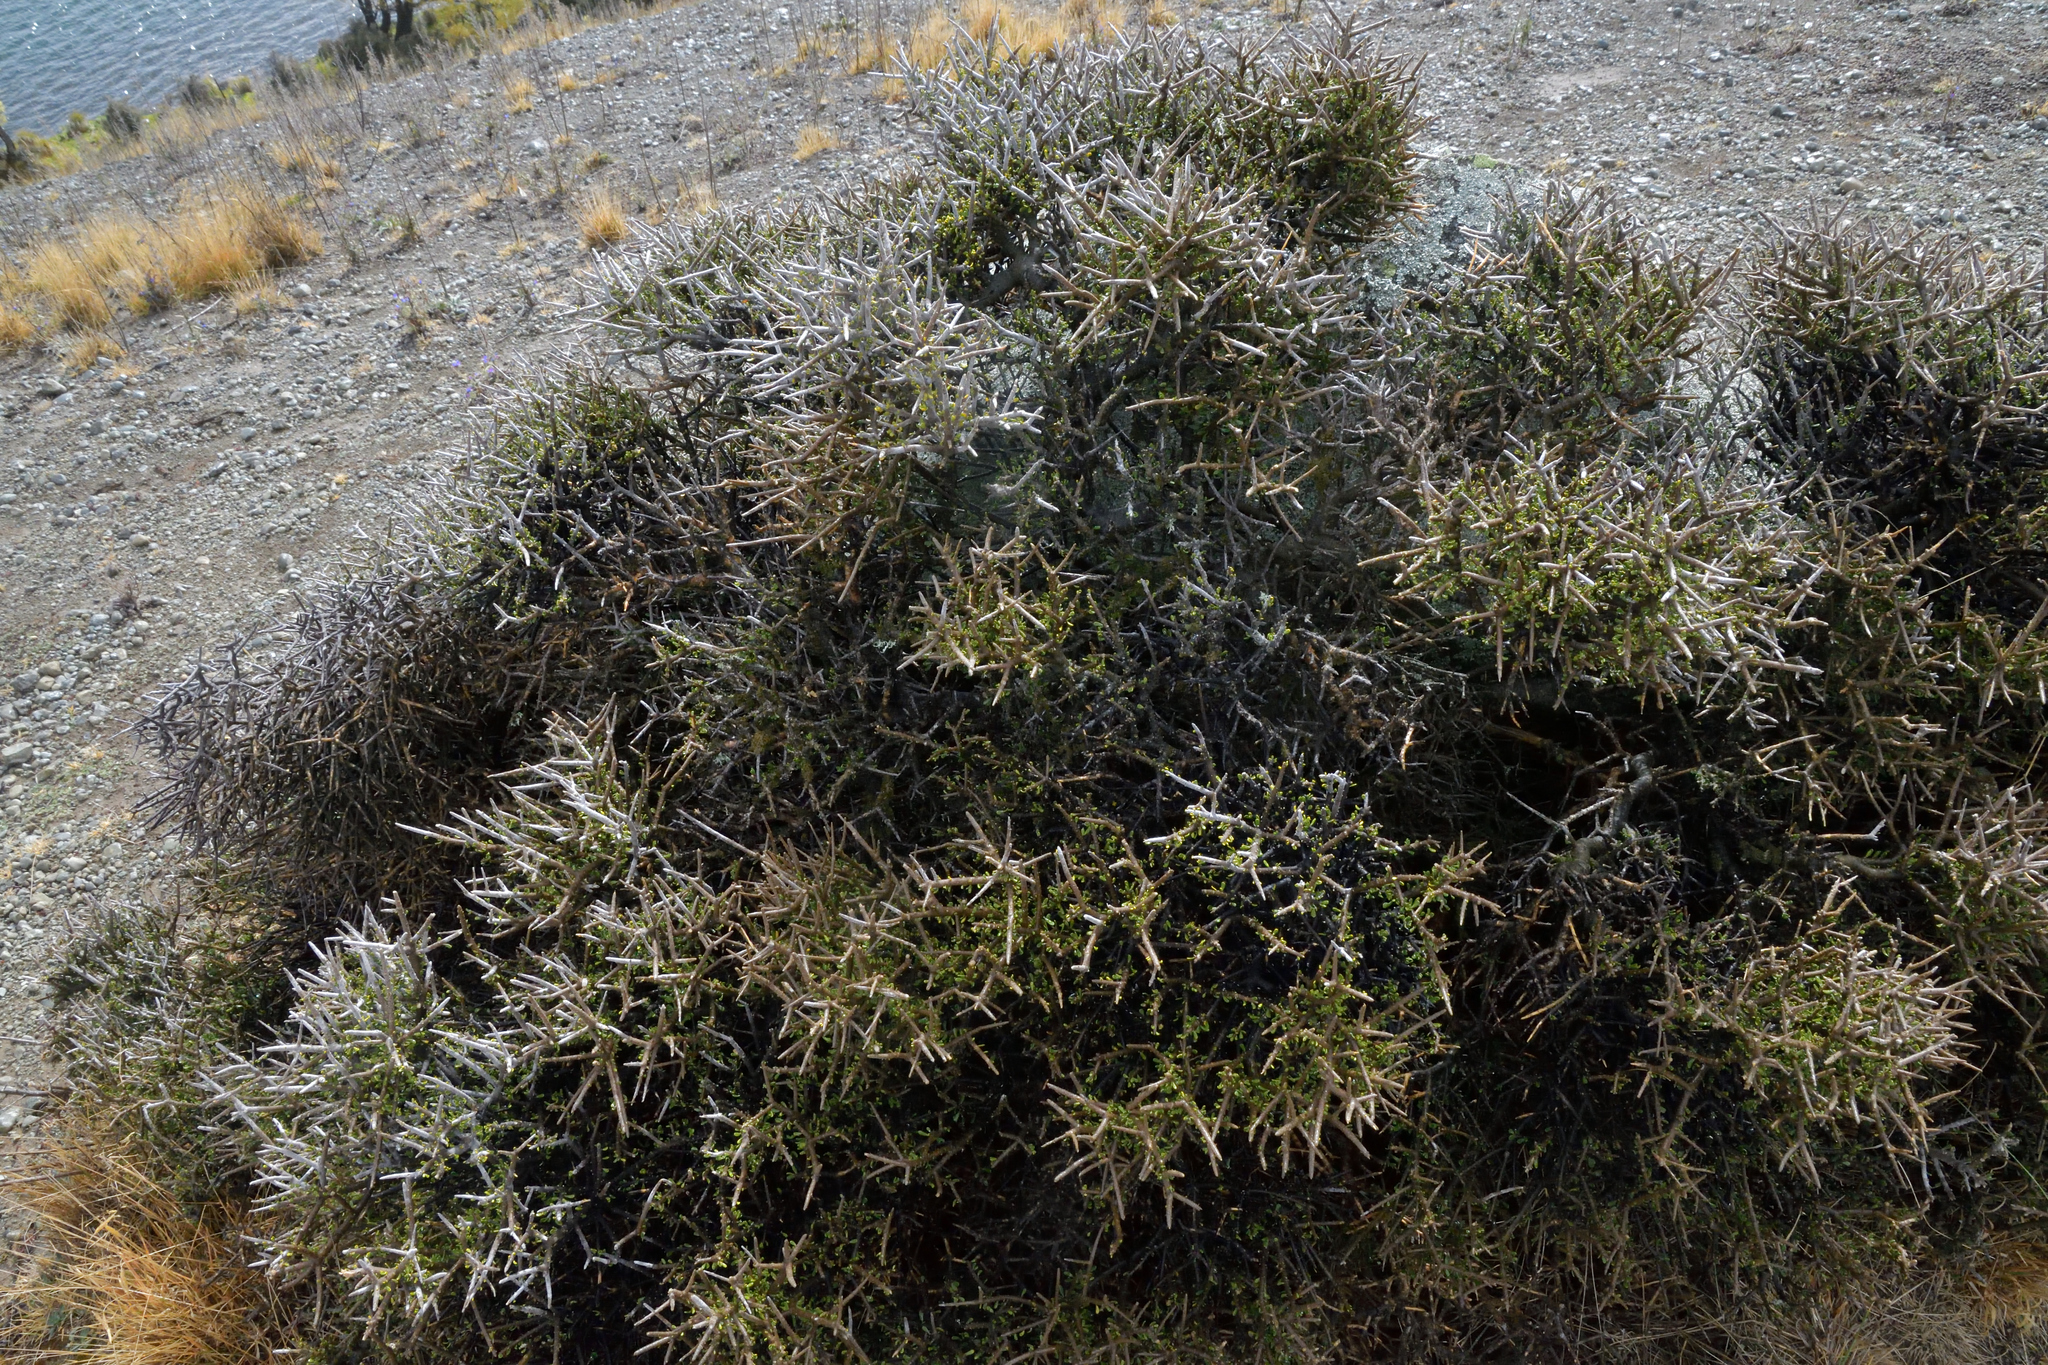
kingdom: Plantae
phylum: Tracheophyta
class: Magnoliopsida
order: Malpighiales
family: Violaceae
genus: Melicytus
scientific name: Melicytus alpinus
